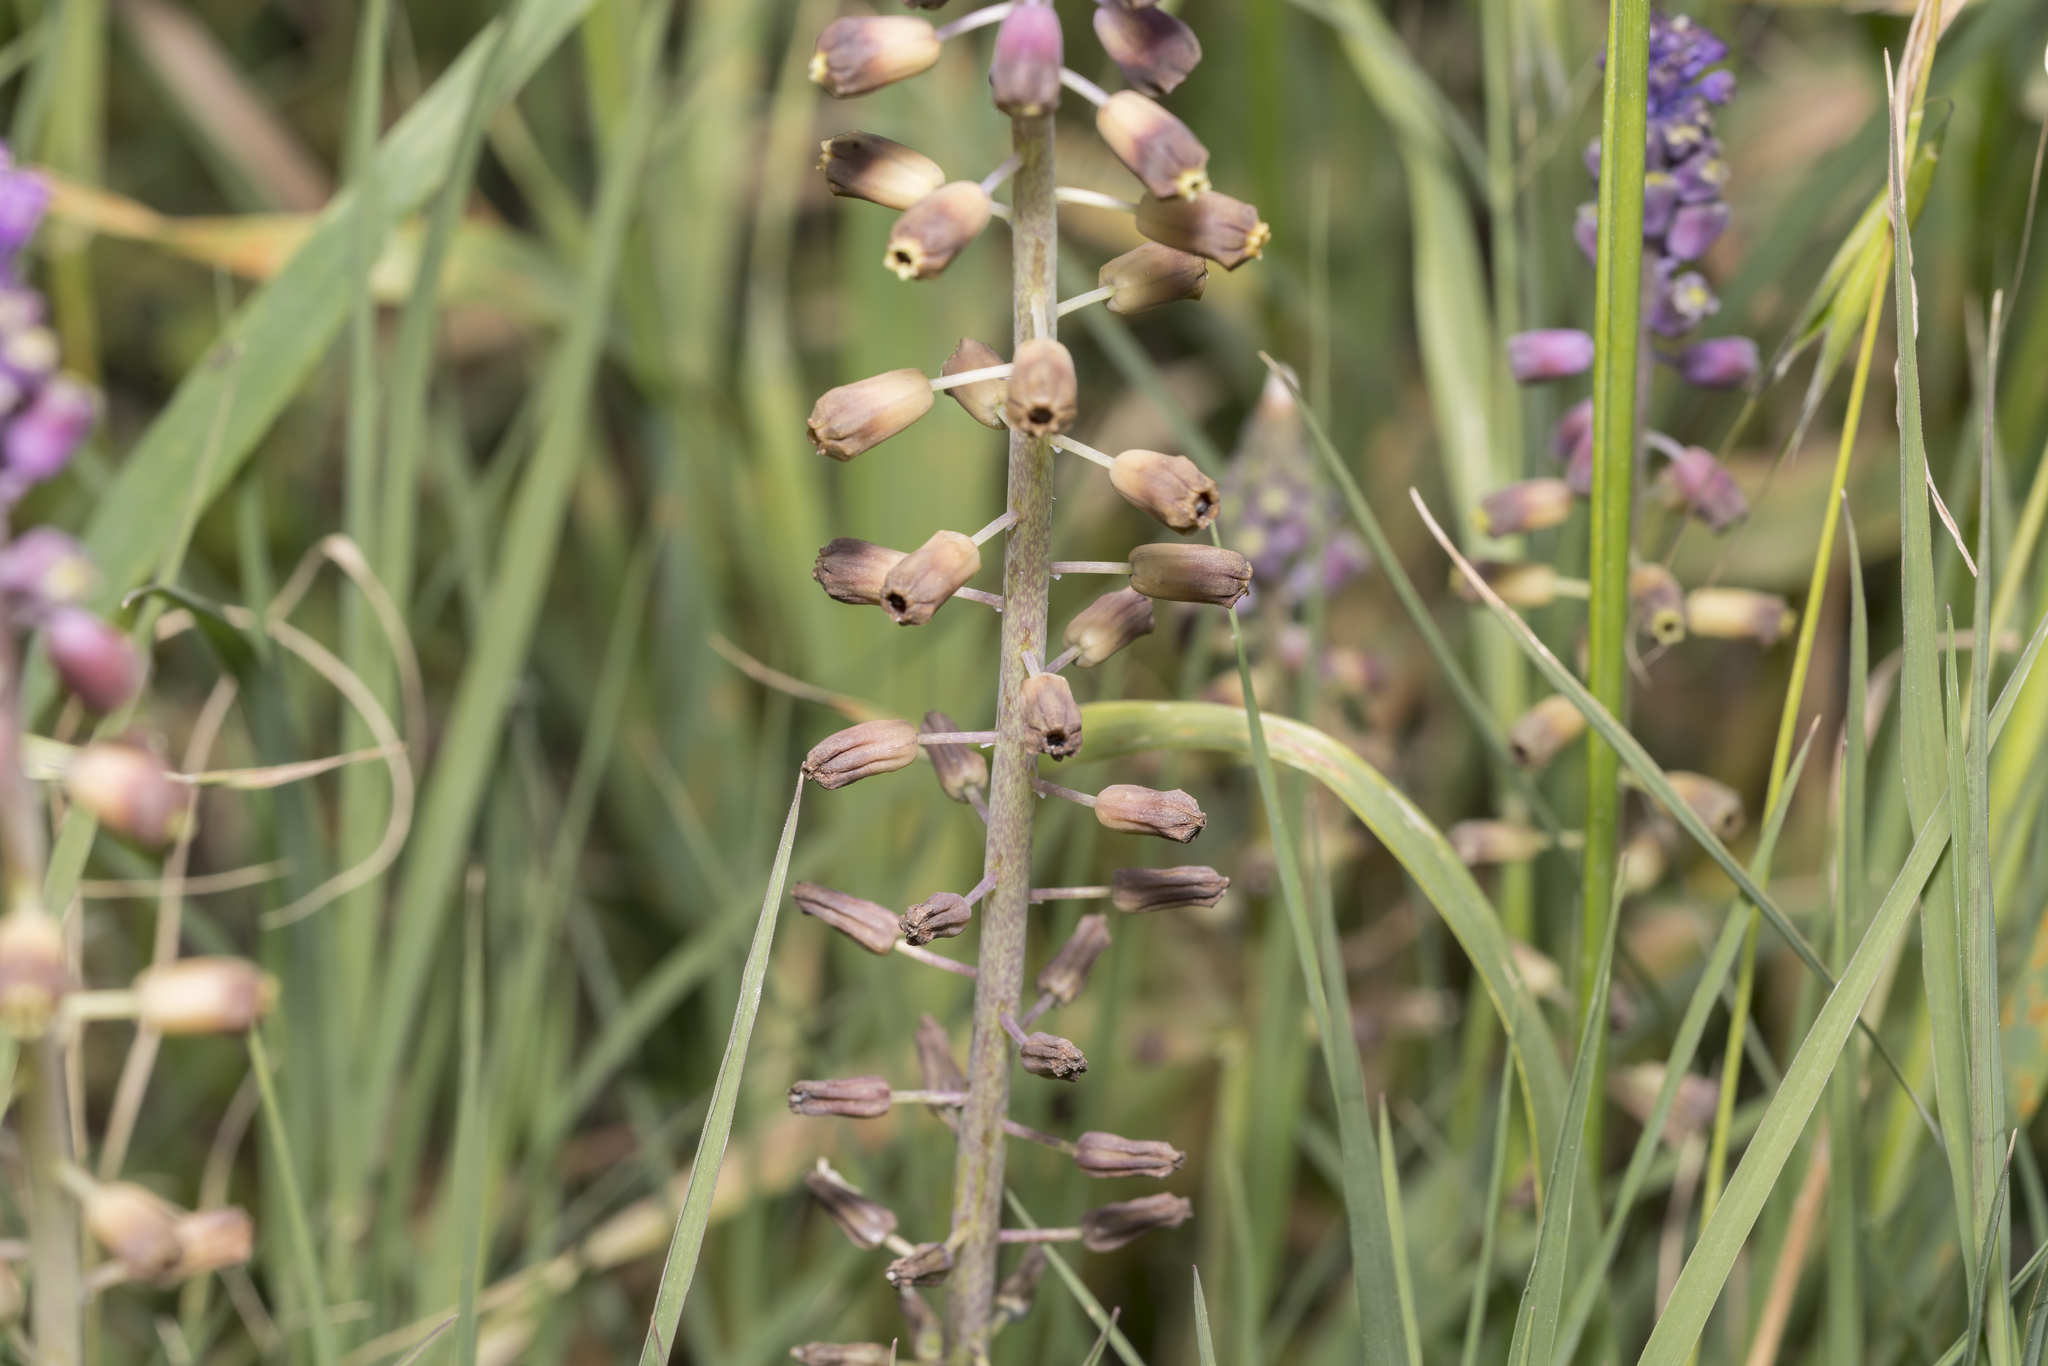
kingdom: Plantae
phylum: Tracheophyta
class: Liliopsida
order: Asparagales
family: Asparagaceae
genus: Muscari
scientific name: Muscari weissii
